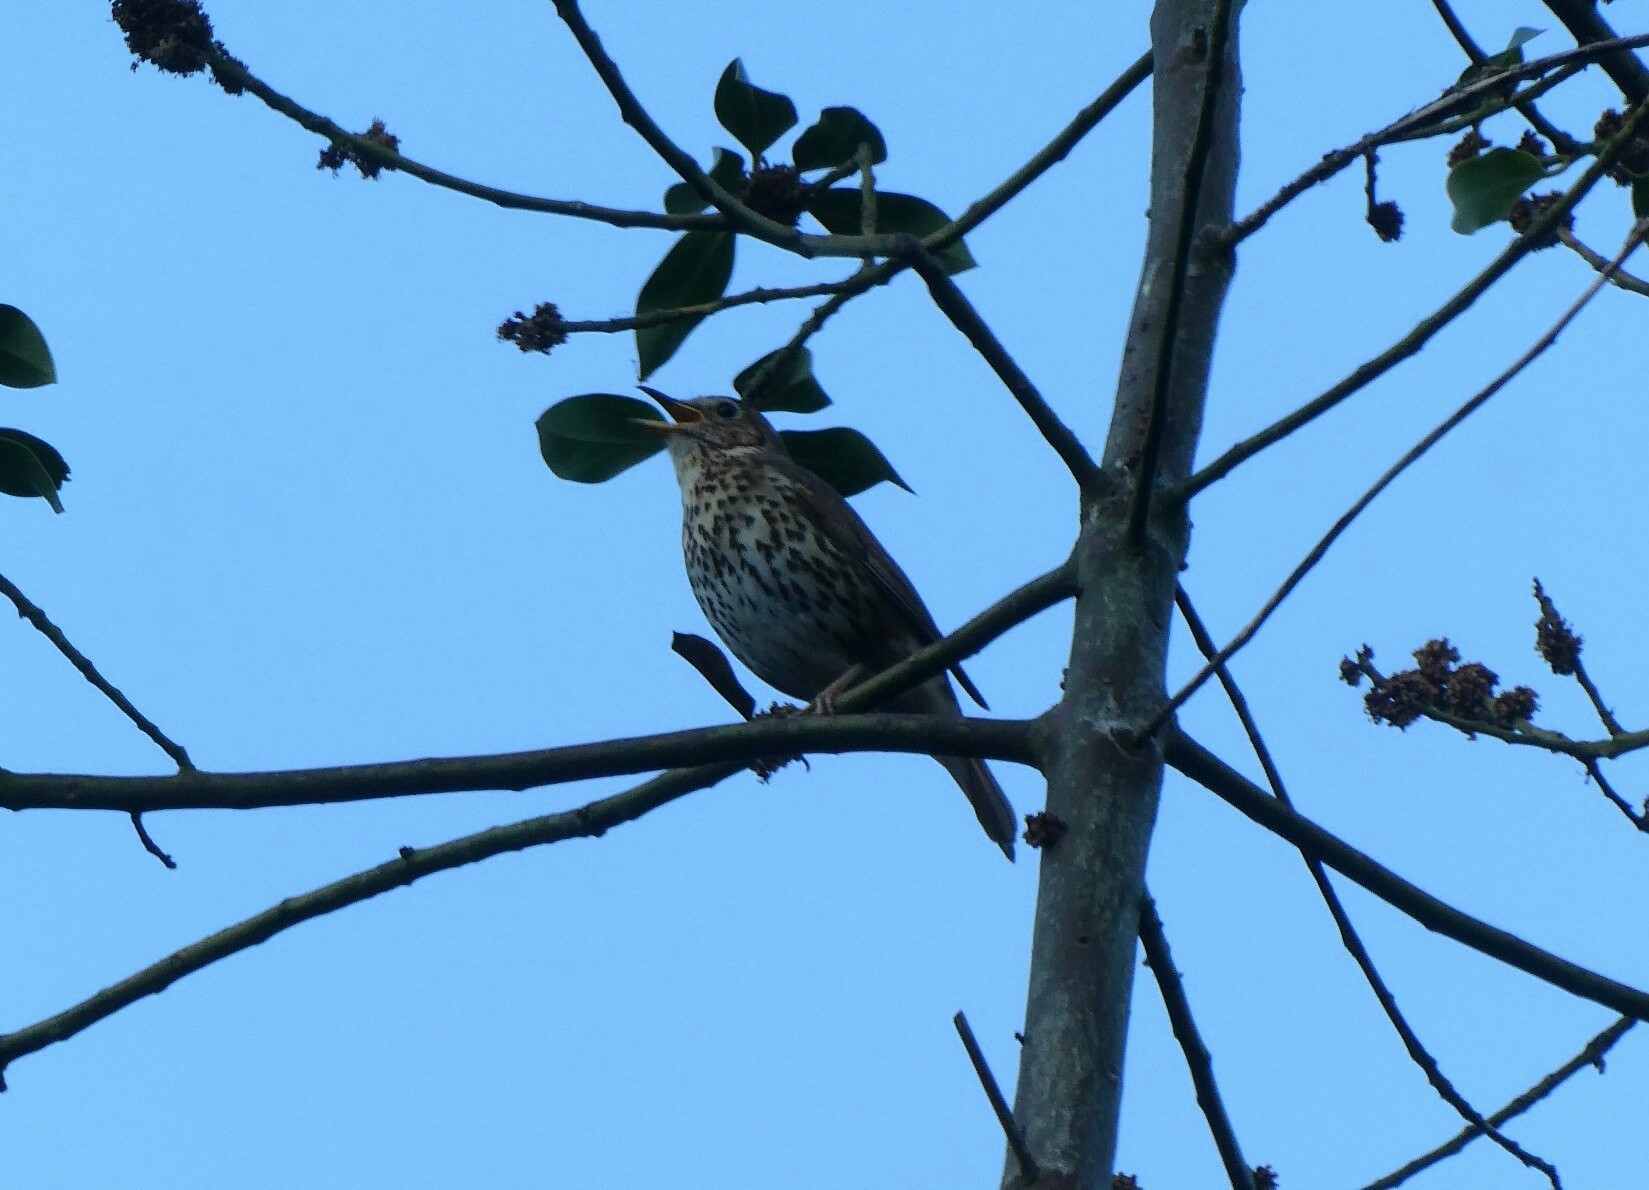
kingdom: Animalia
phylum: Chordata
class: Aves
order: Passeriformes
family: Turdidae
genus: Turdus
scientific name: Turdus philomelos
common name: Song thrush
